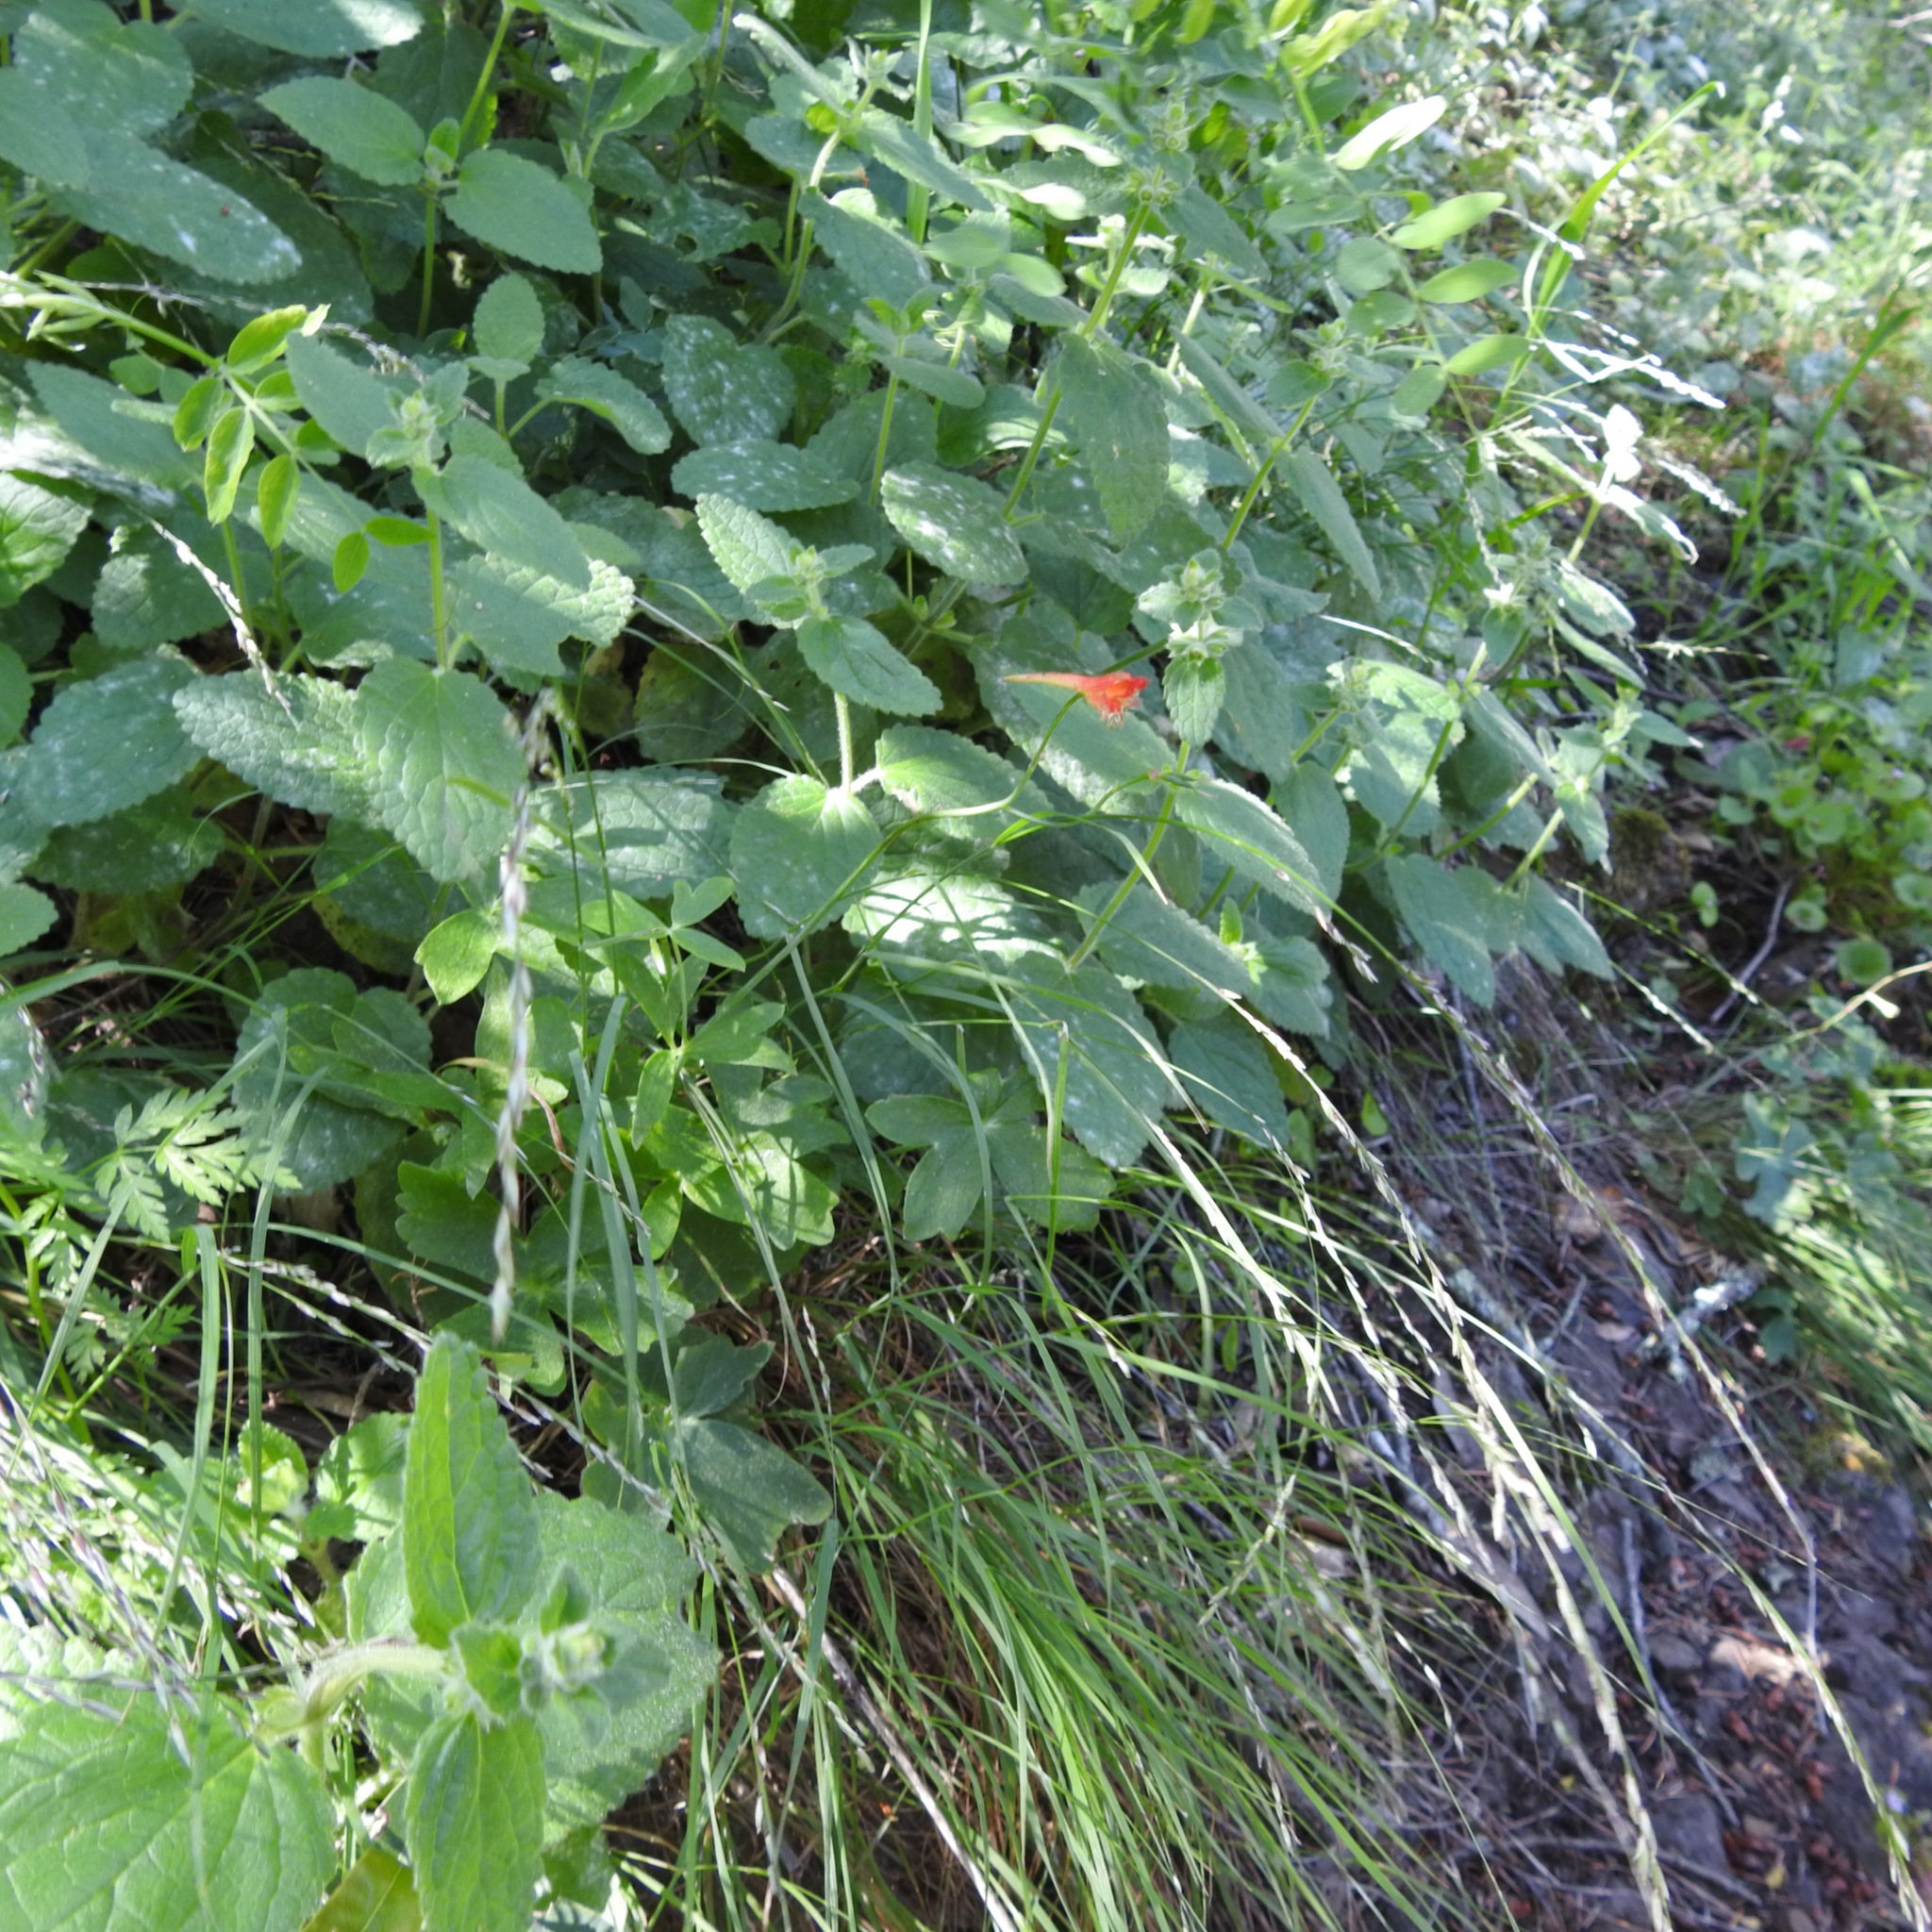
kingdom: Plantae
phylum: Tracheophyta
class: Magnoliopsida
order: Ranunculales
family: Ranunculaceae
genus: Delphinium
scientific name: Delphinium nudicaule
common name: Red larkspur
